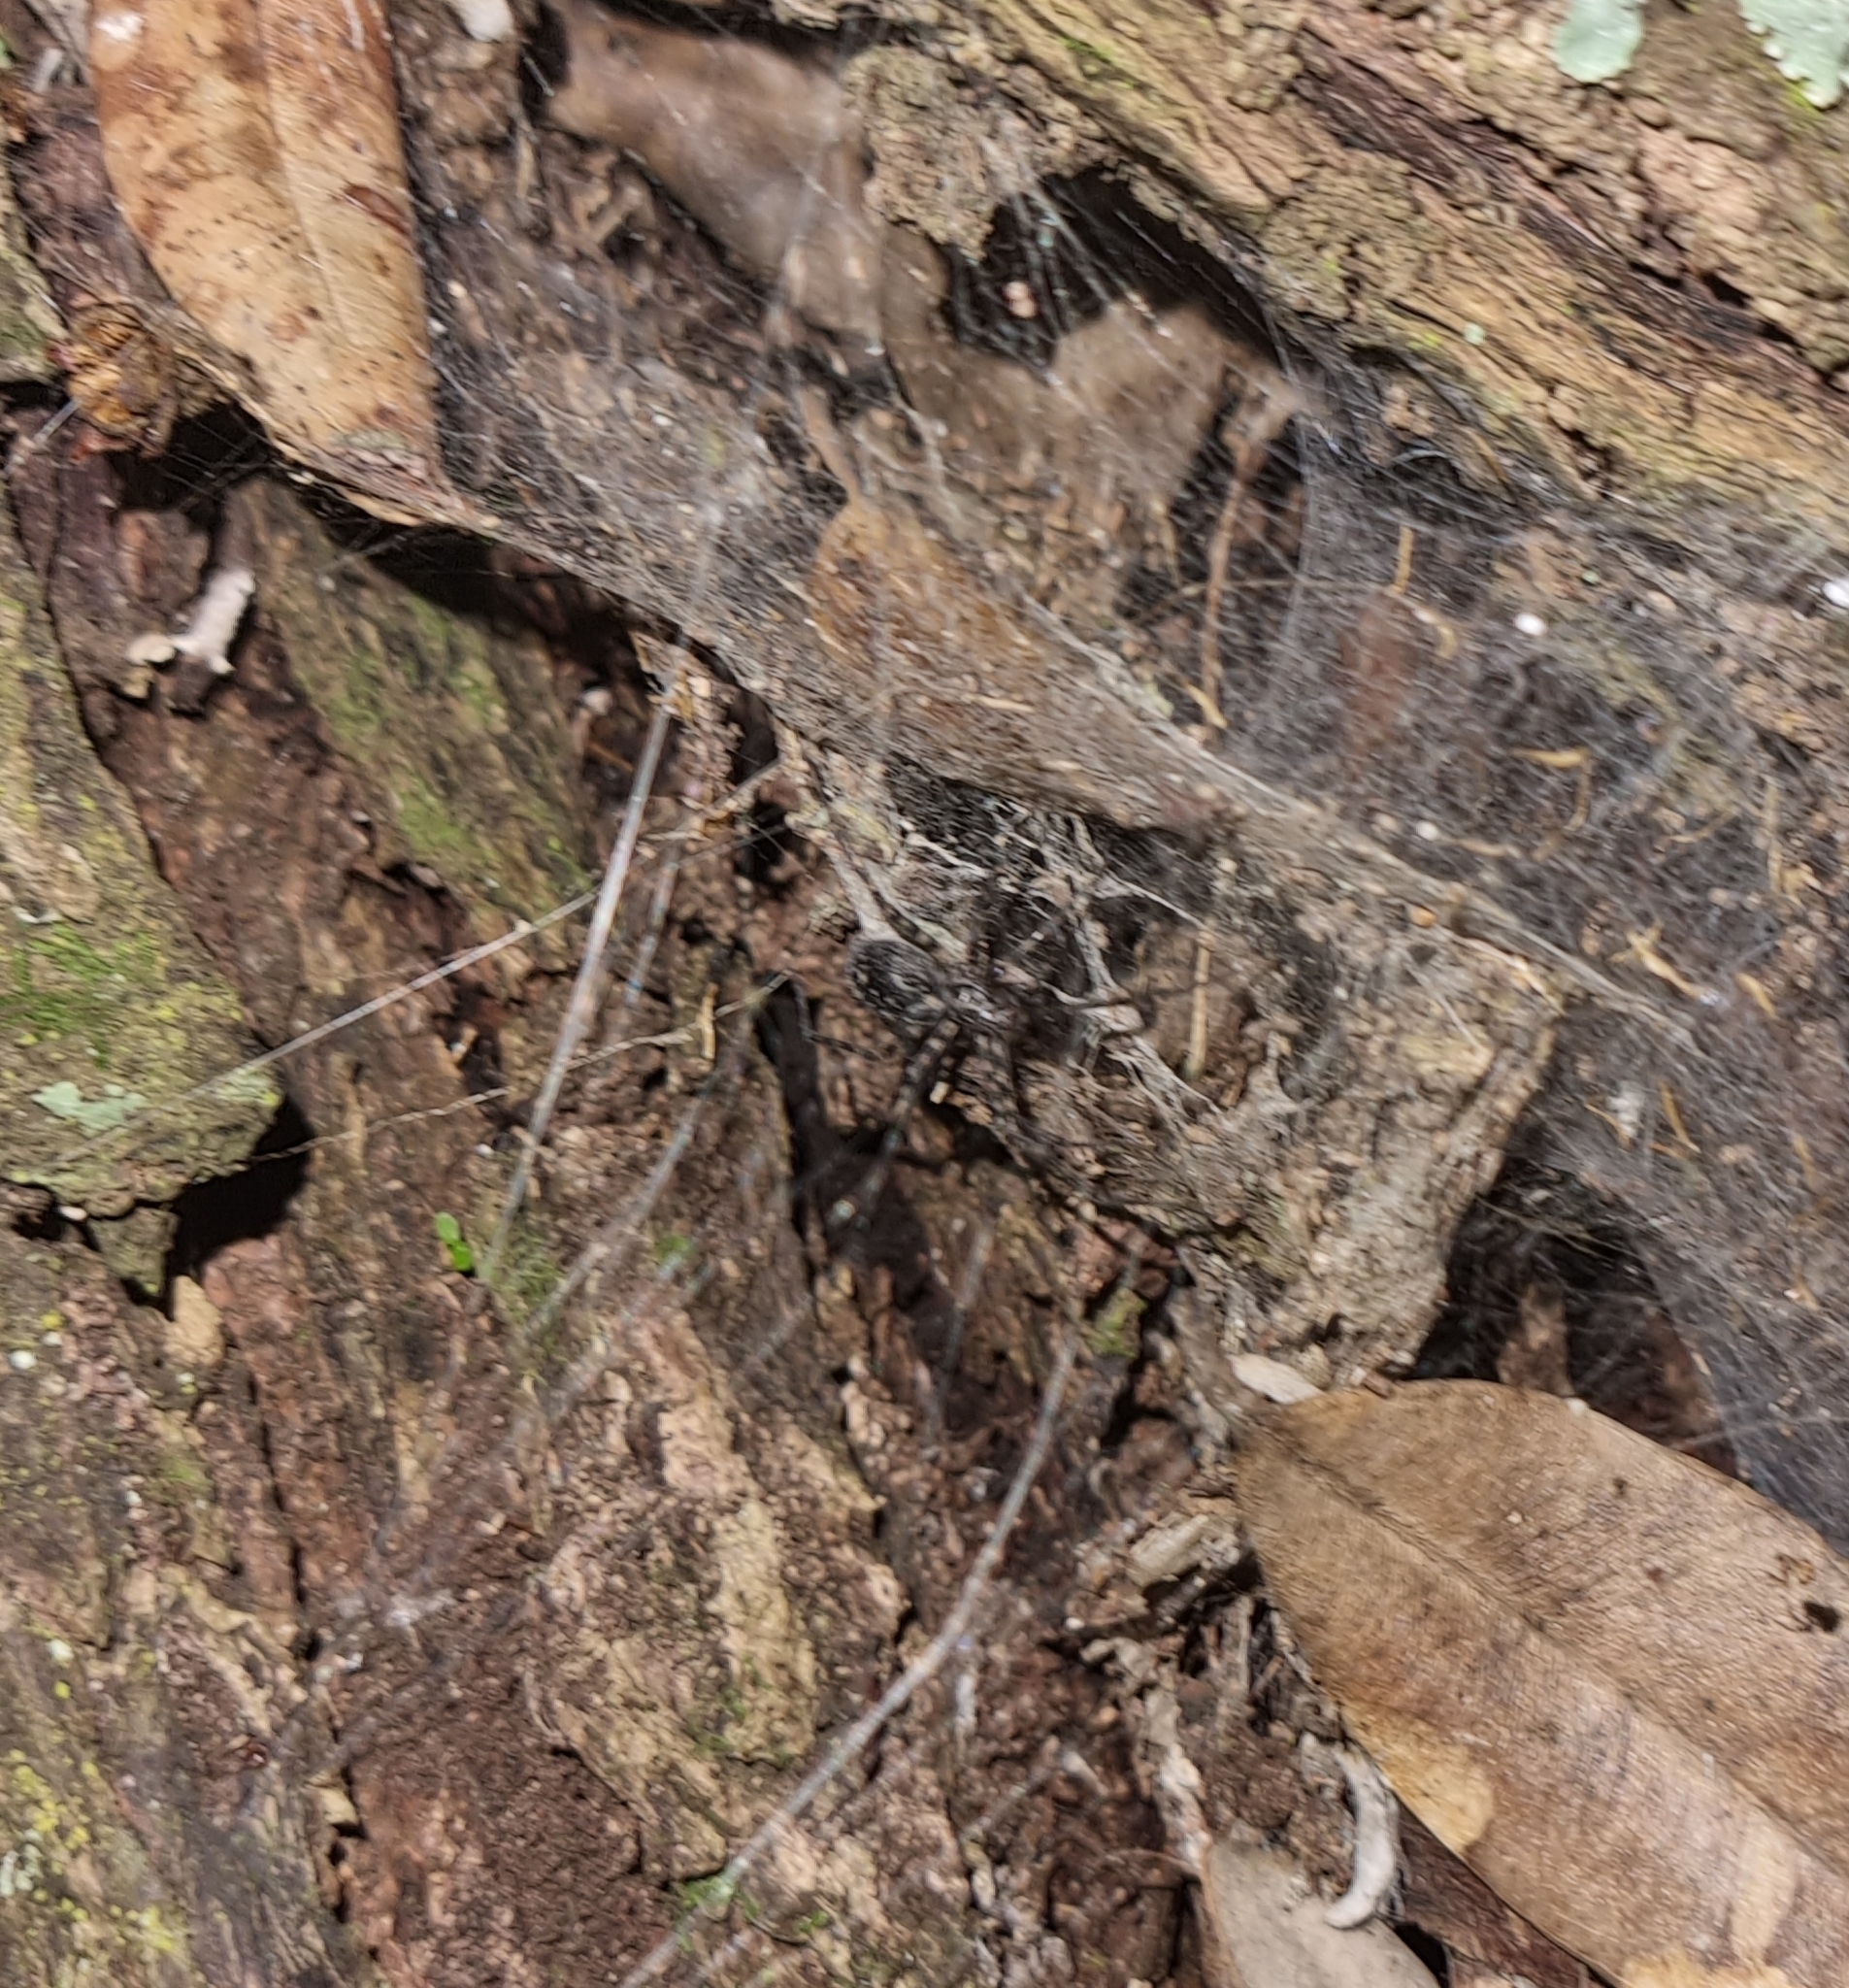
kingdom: Animalia
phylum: Arthropoda
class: Arachnida
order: Araneae
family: Stiphidiidae
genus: Stiphidion
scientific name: Stiphidion facetum
